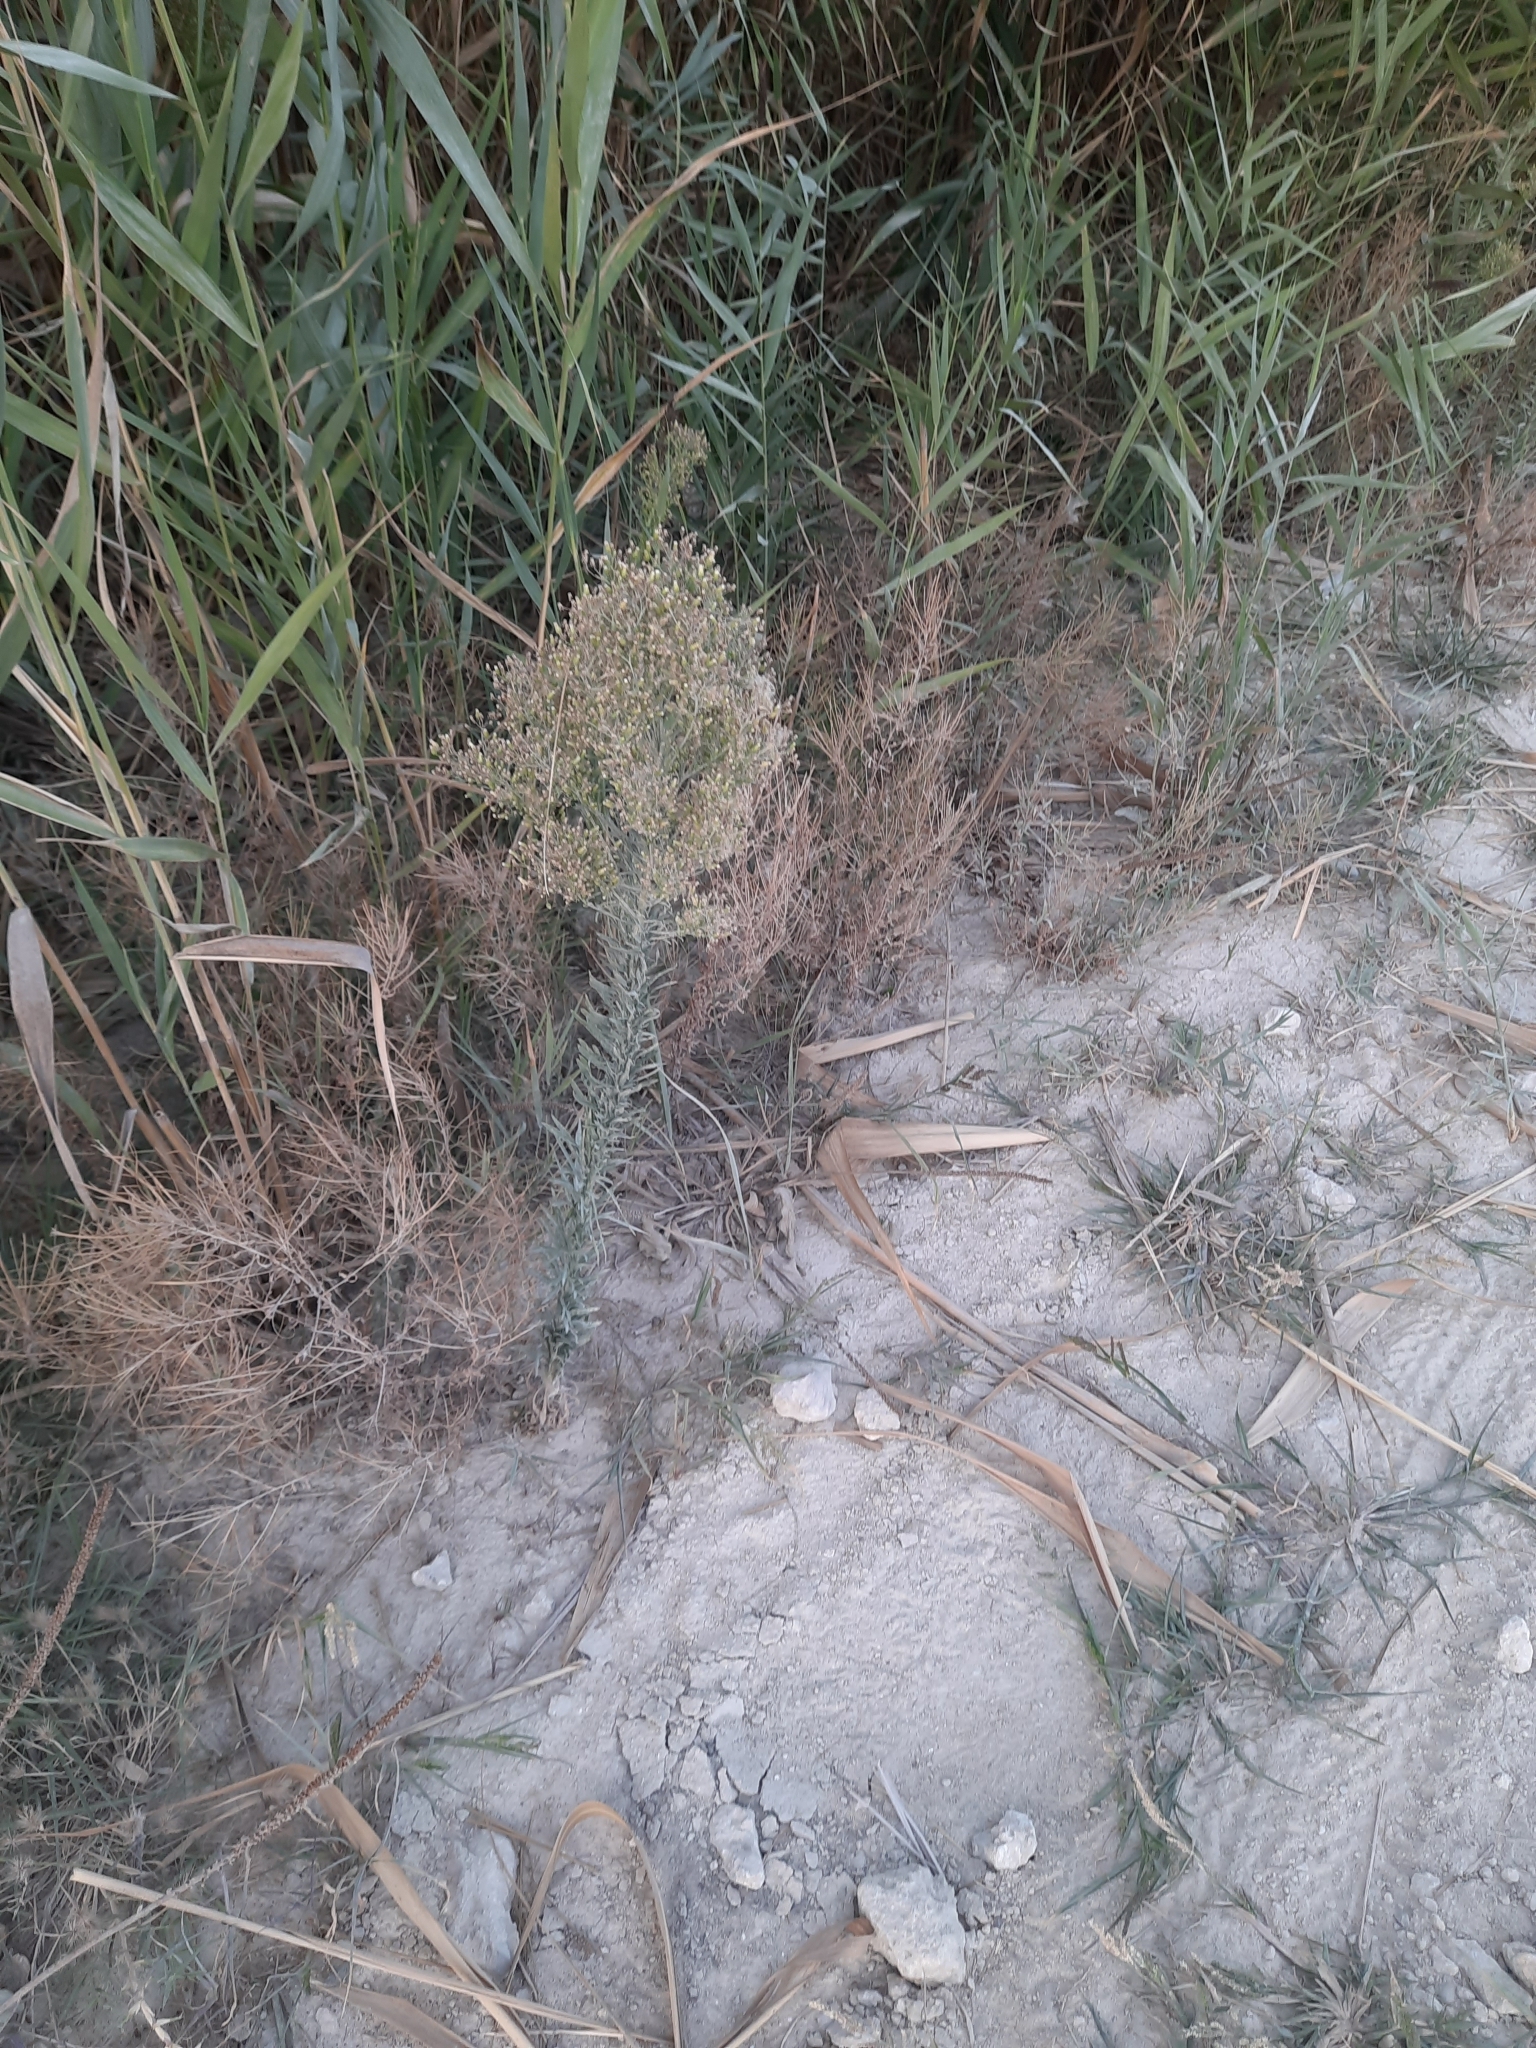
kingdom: Plantae
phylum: Tracheophyta
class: Magnoliopsida
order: Asterales
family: Asteraceae
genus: Erigeron
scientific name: Erigeron canadensis
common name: Canadian fleabane
